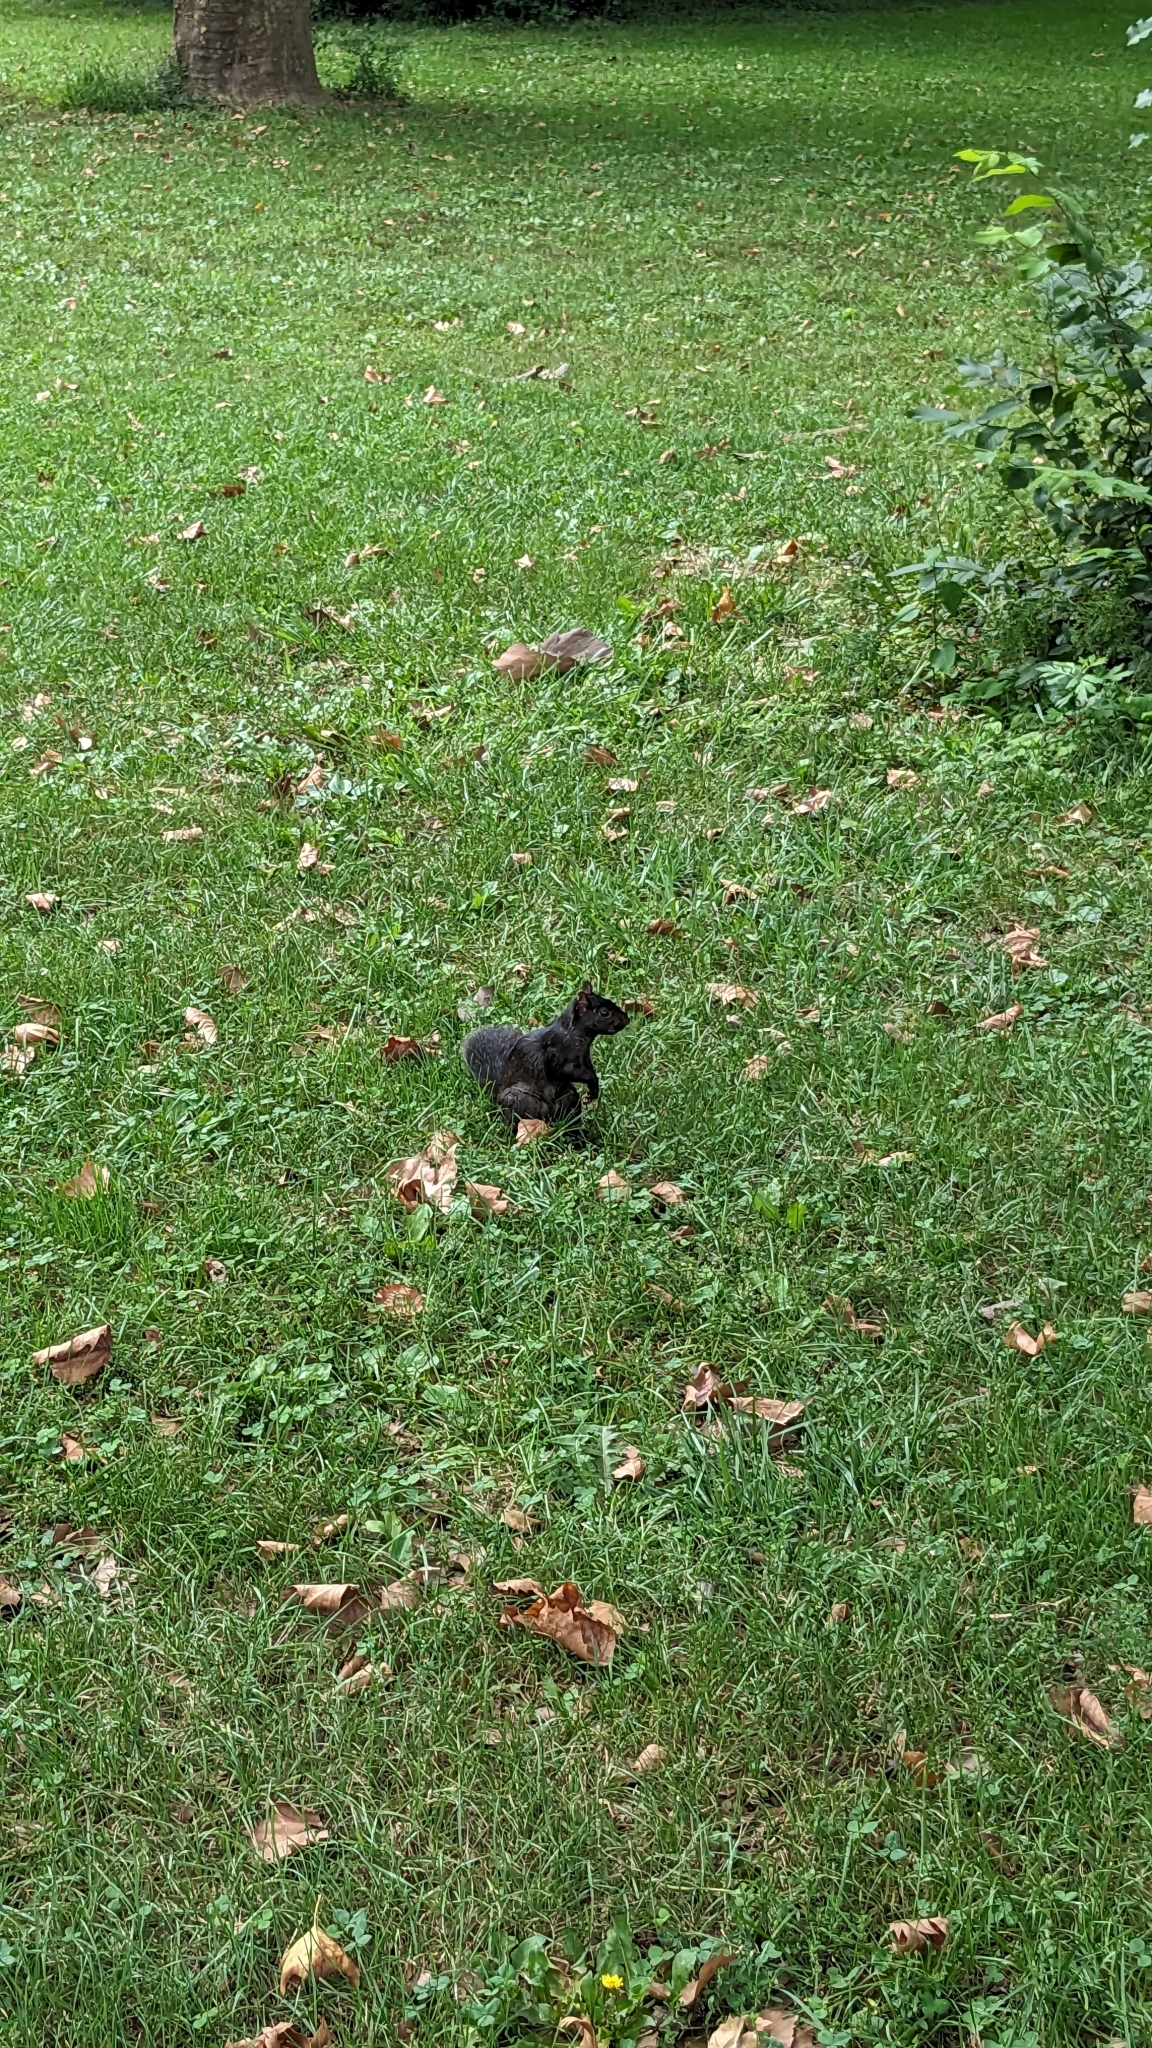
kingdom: Animalia
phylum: Chordata
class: Mammalia
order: Rodentia
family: Sciuridae
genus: Sciurus
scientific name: Sciurus carolinensis
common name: Eastern gray squirrel
